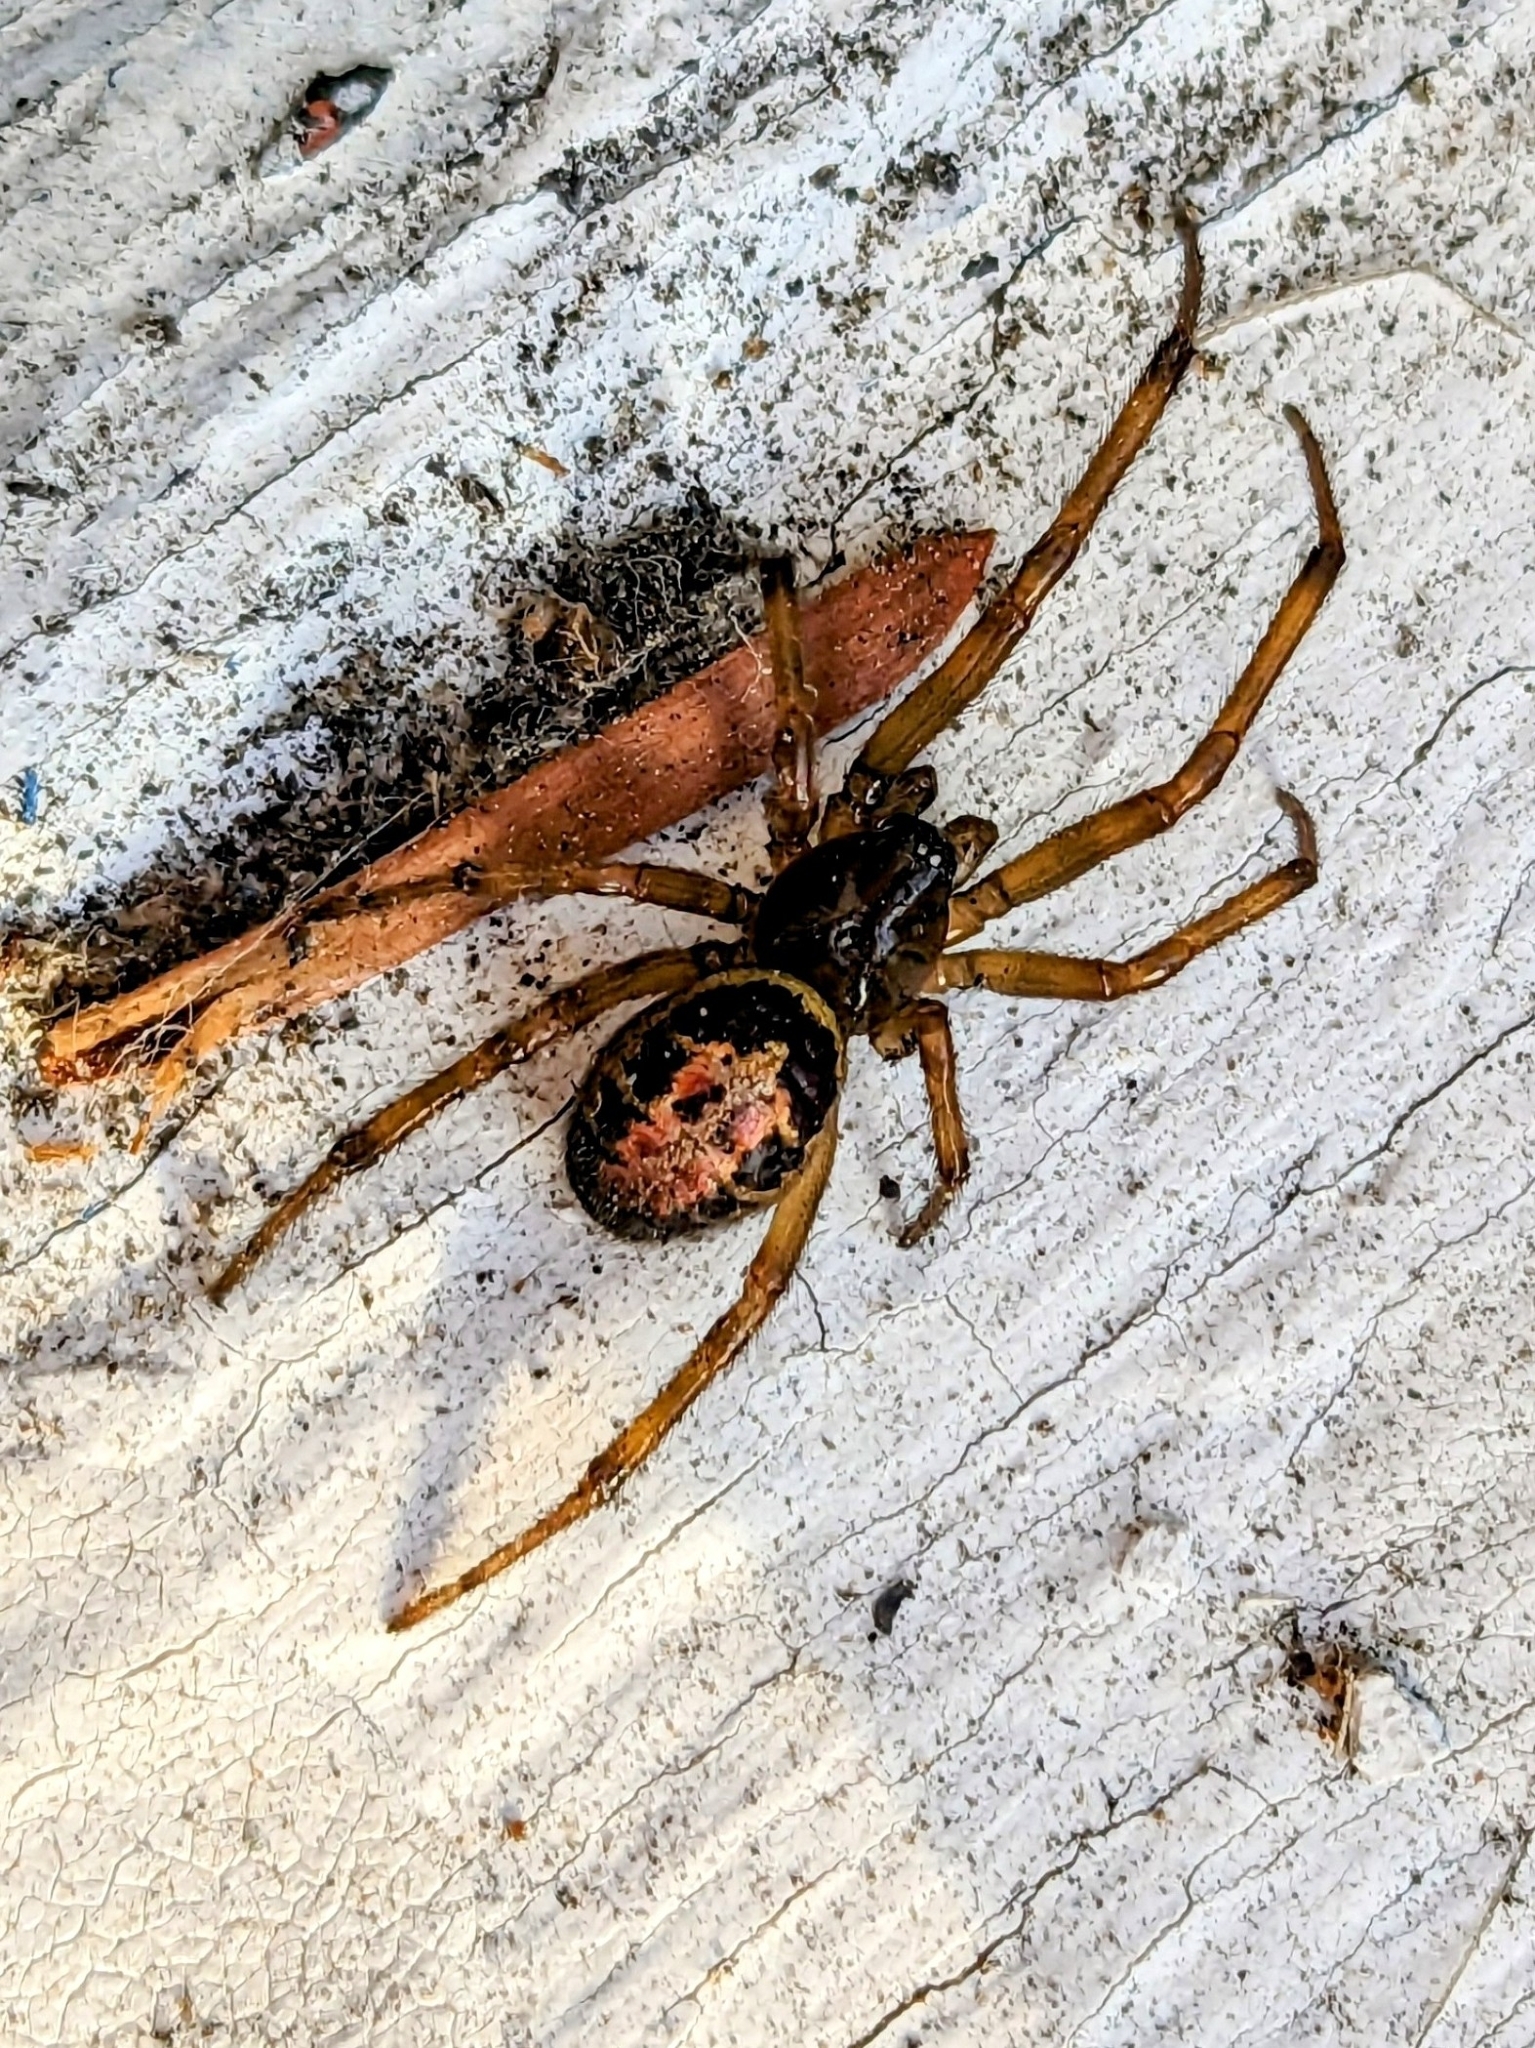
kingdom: Animalia
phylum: Arthropoda
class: Arachnida
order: Araneae
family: Theridiidae
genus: Steatoda
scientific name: Steatoda nobilis
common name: Cobweb weaver
